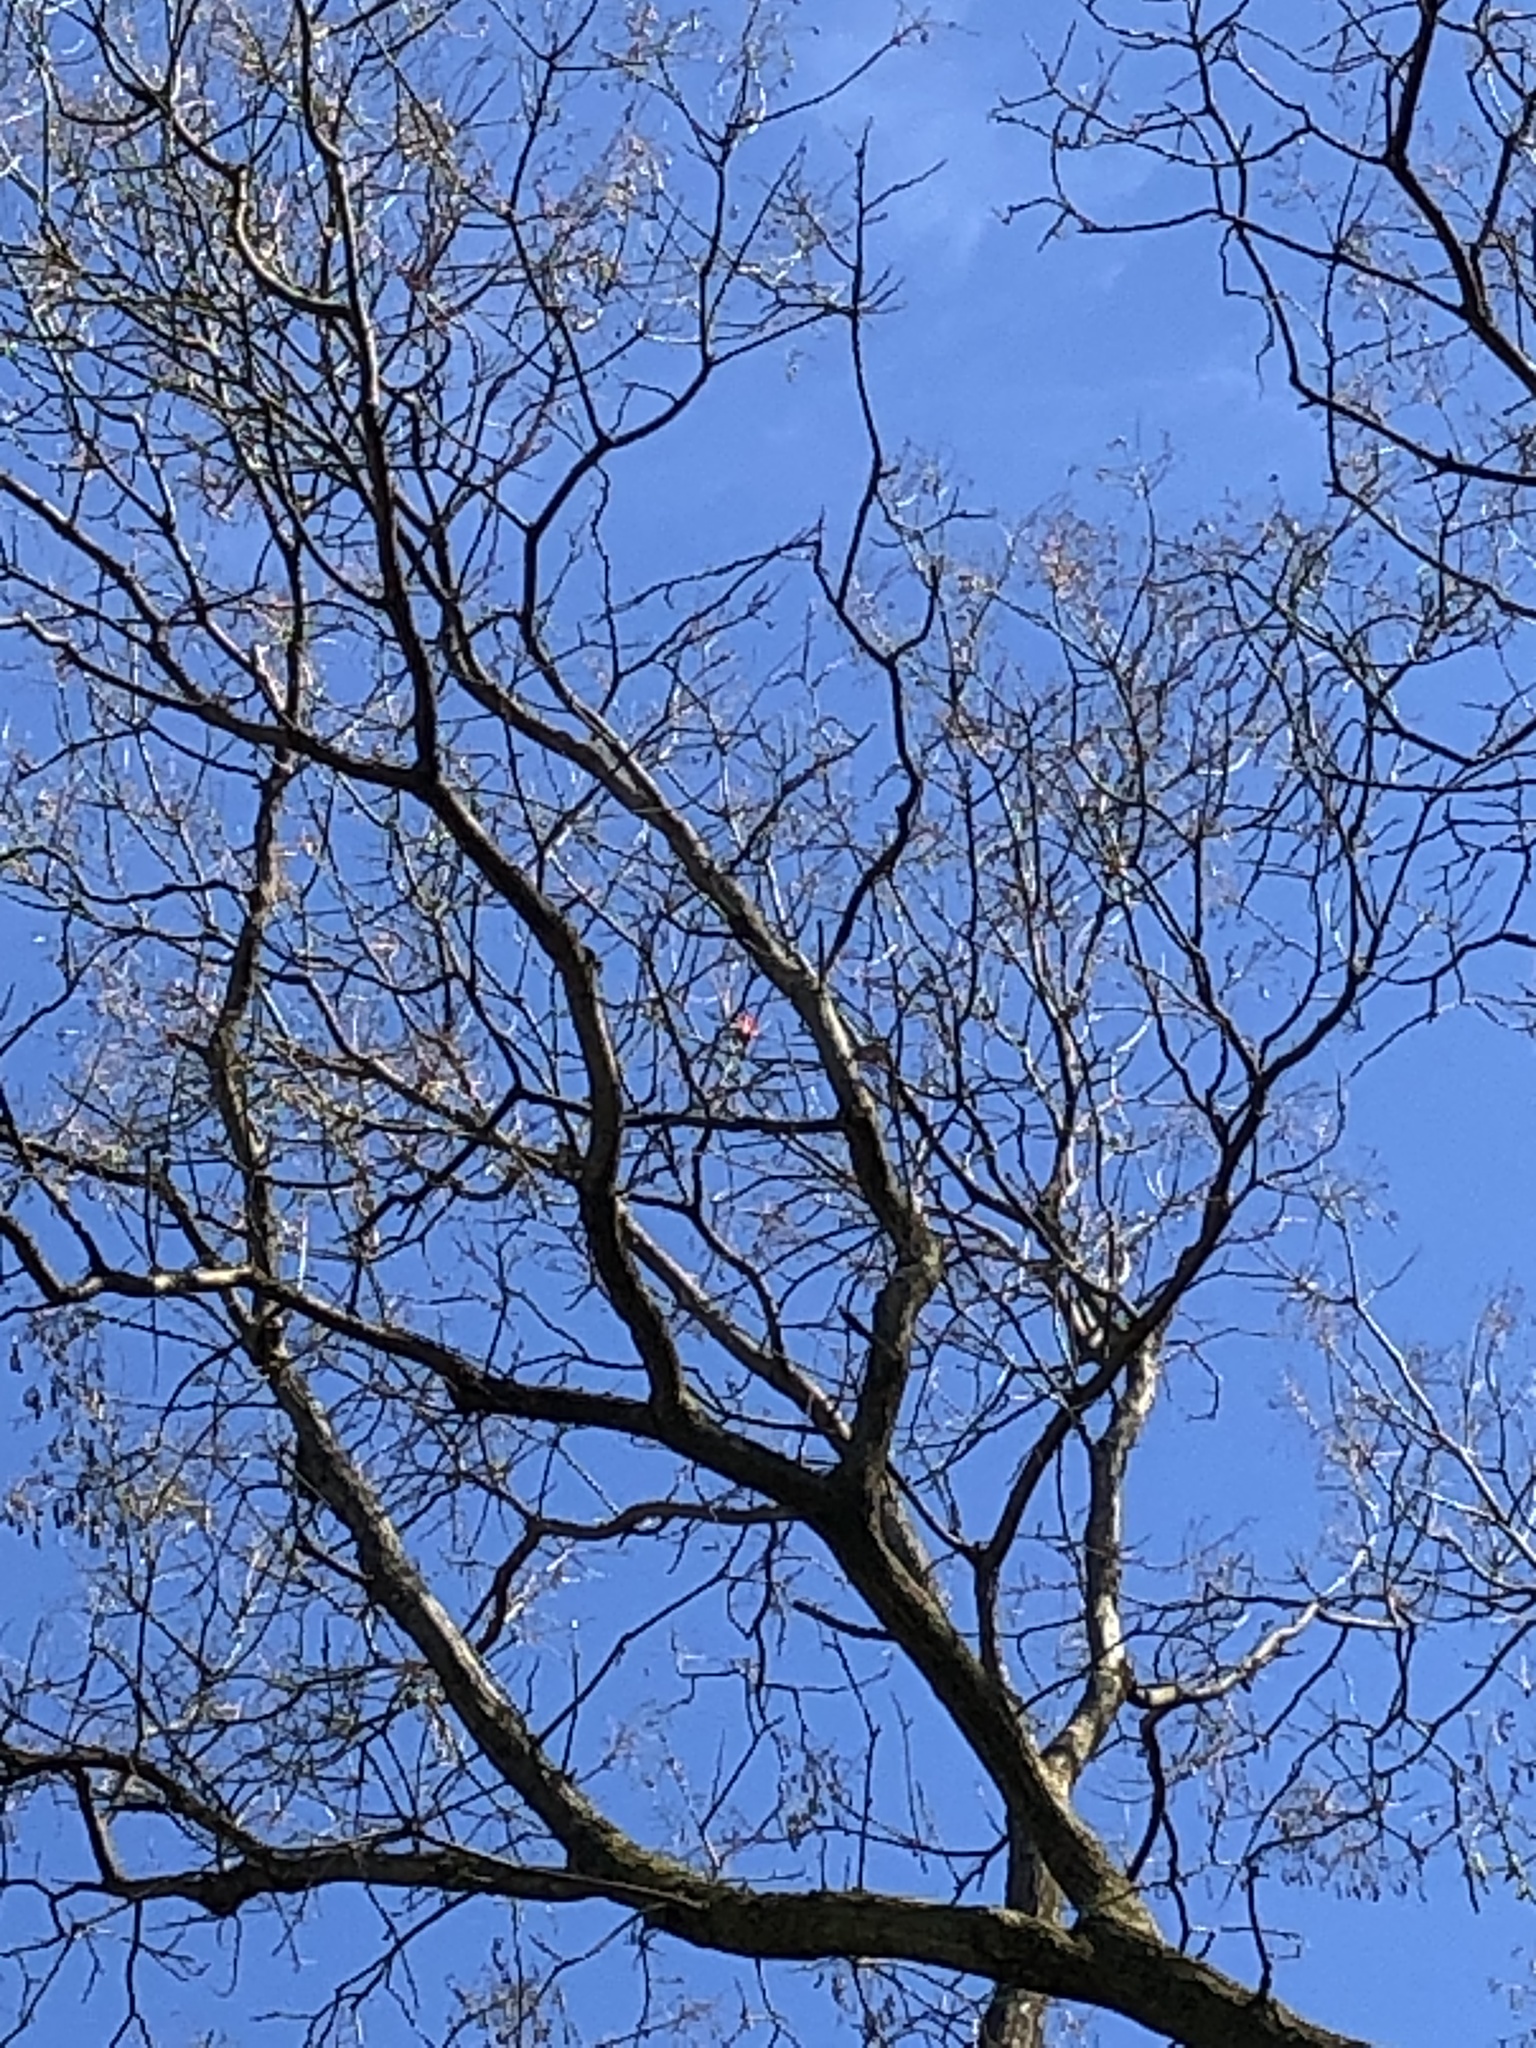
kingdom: Animalia
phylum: Chordata
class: Aves
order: Passeriformes
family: Cardinalidae
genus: Cardinalis
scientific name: Cardinalis cardinalis
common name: Northern cardinal
